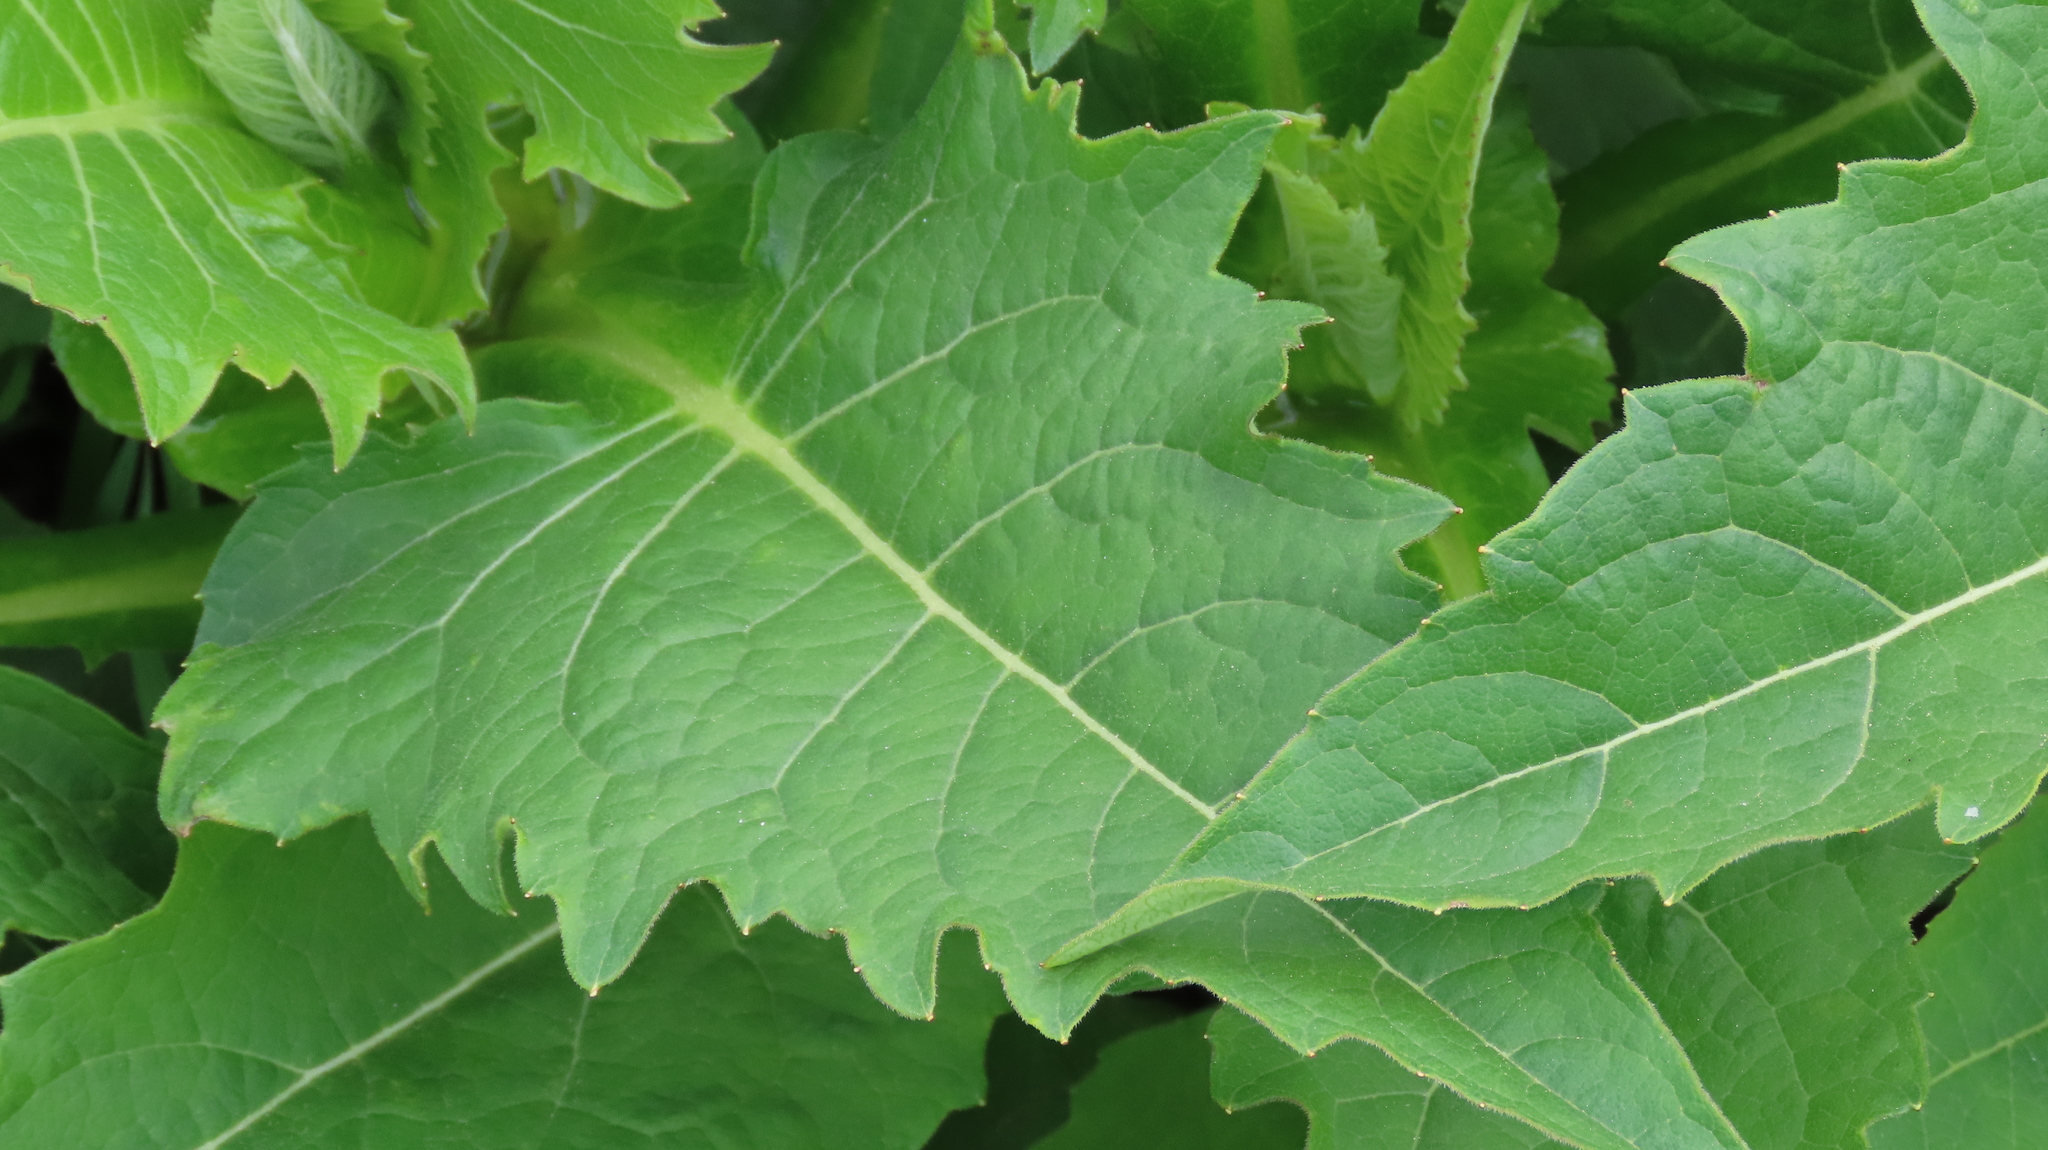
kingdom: Plantae
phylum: Tracheophyta
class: Magnoliopsida
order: Asterales
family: Asteraceae
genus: Silphium
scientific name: Silphium perfoliatum
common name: Cup-plant
